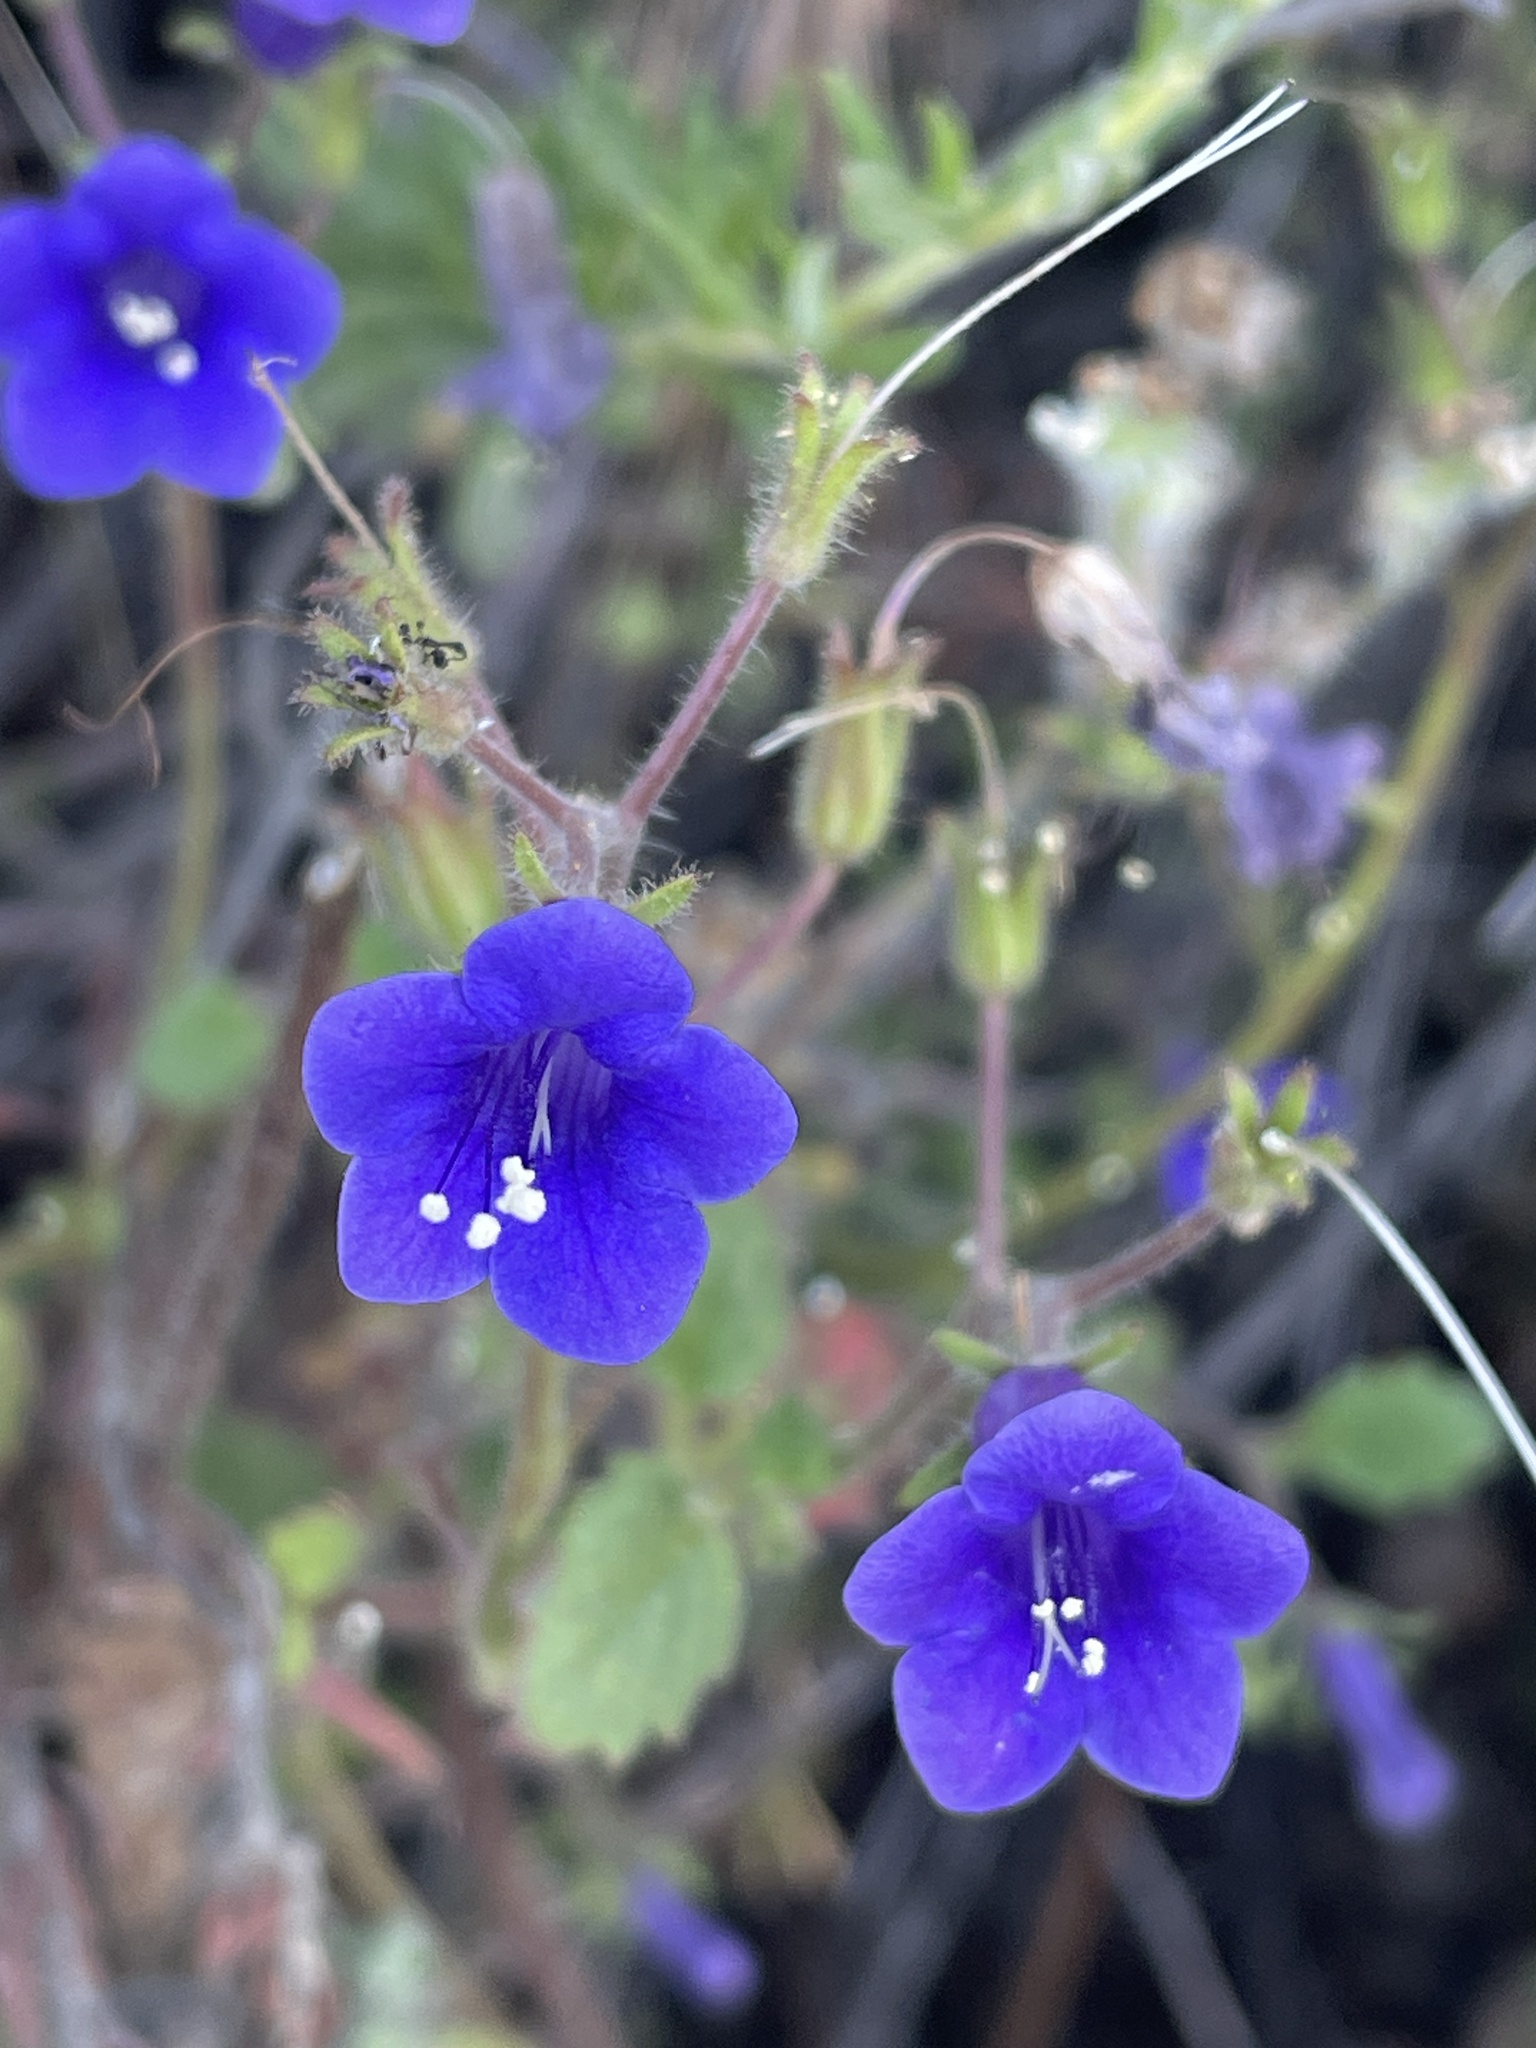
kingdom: Plantae
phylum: Tracheophyta
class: Magnoliopsida
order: Boraginales
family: Hydrophyllaceae
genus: Phacelia
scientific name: Phacelia minor
